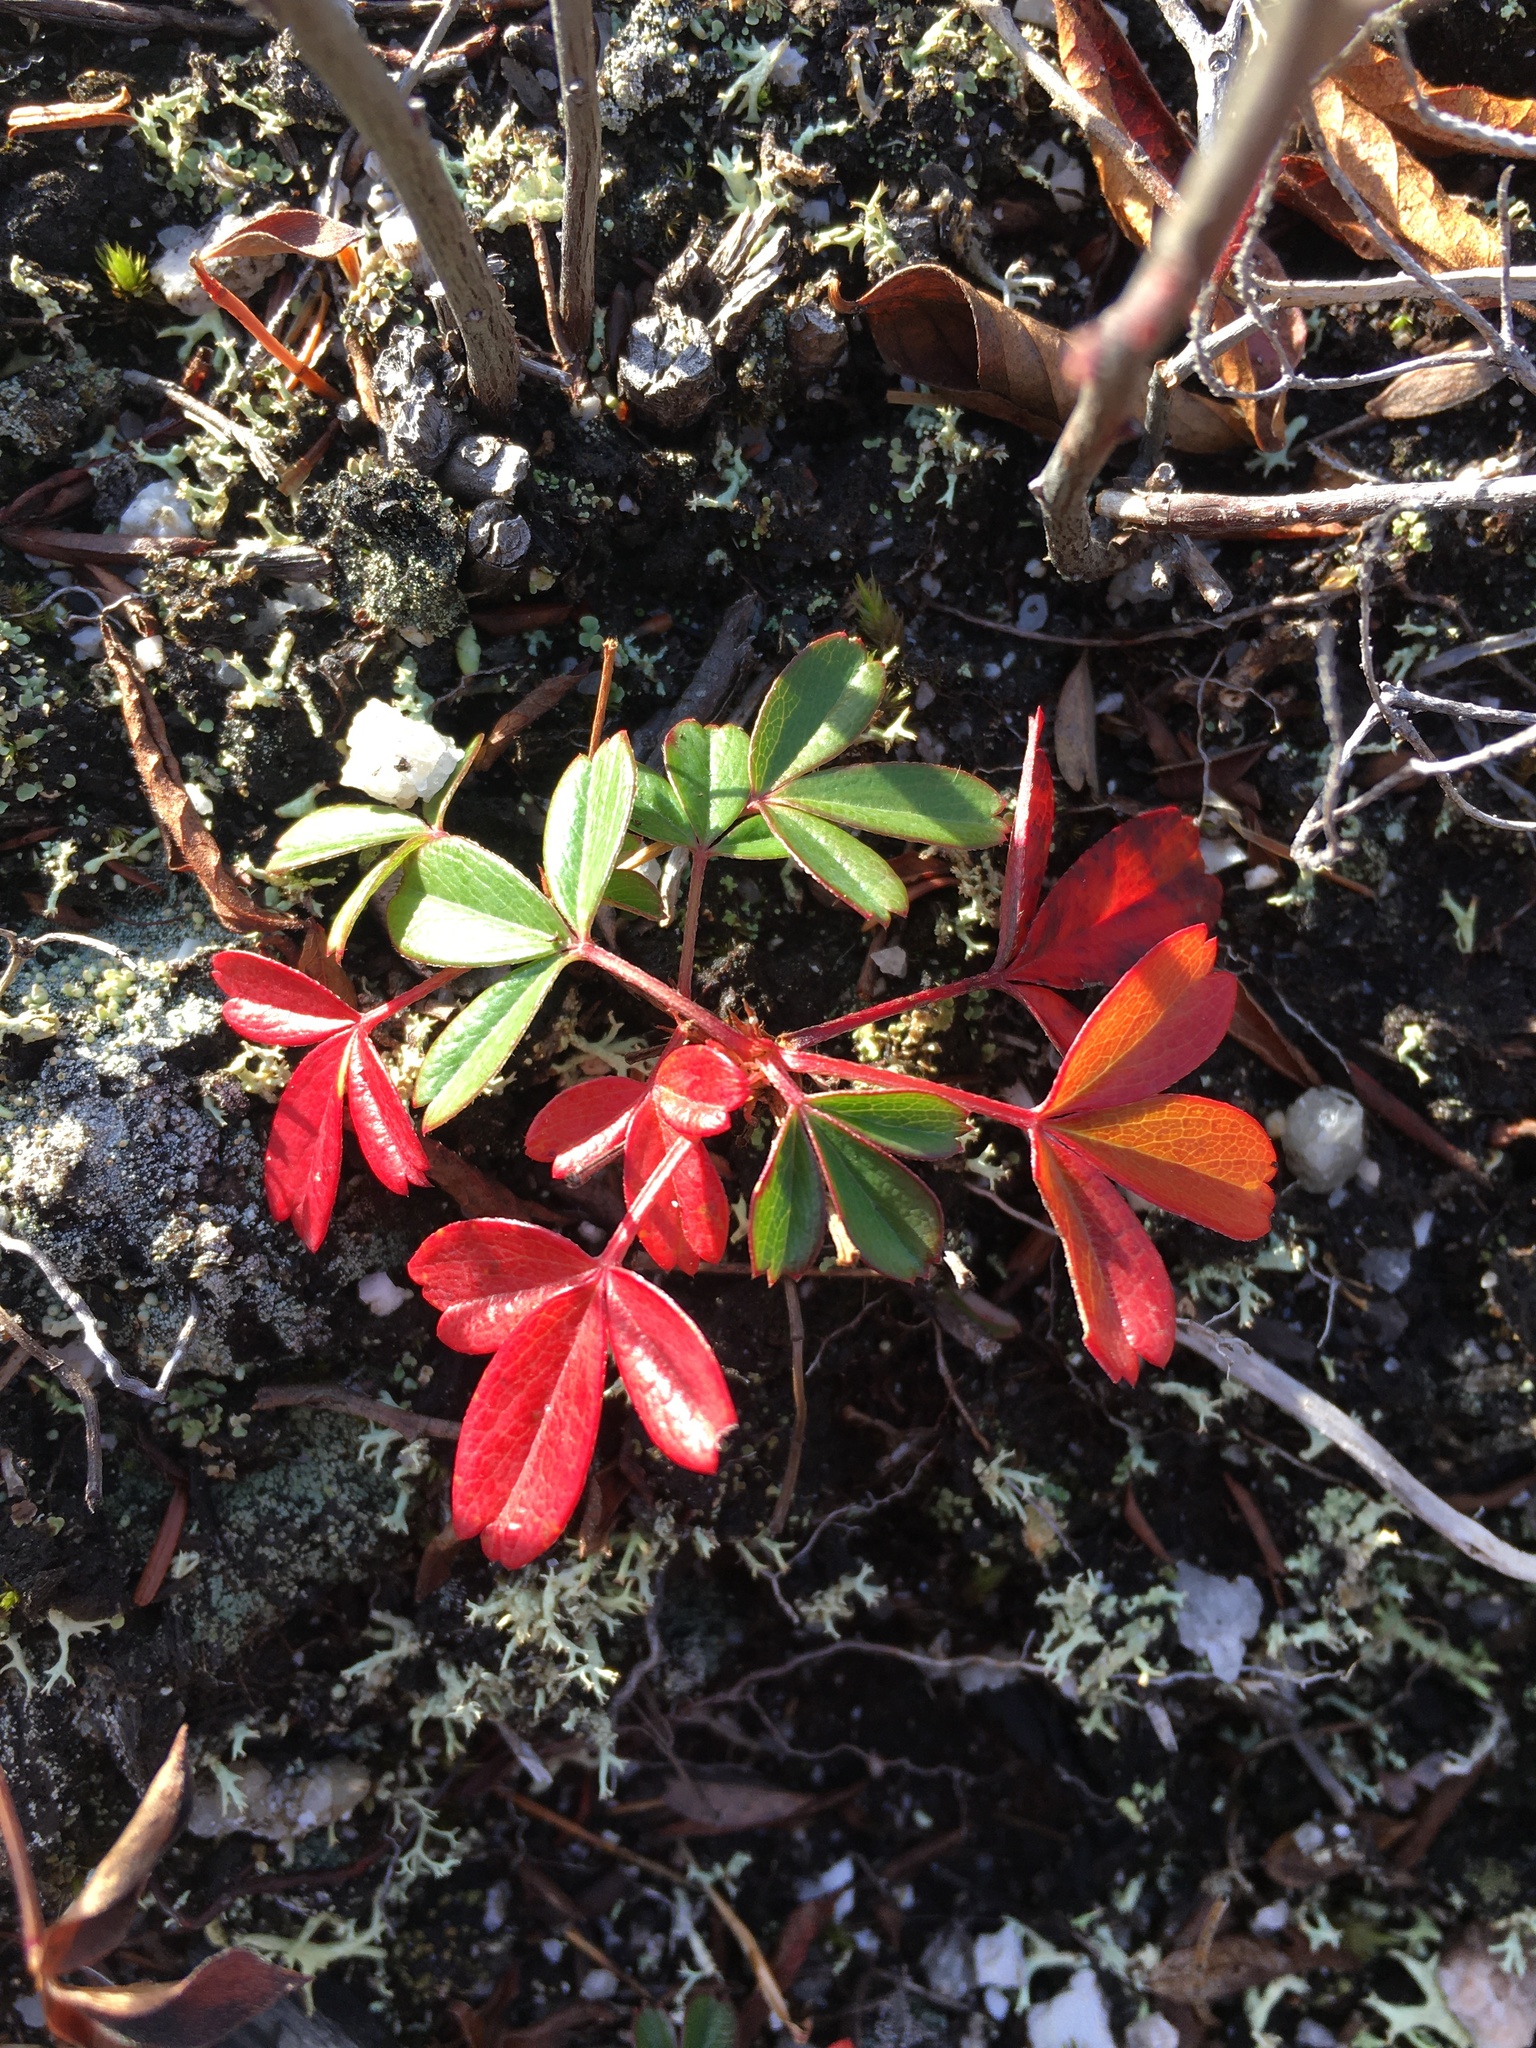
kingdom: Plantae
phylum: Tracheophyta
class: Magnoliopsida
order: Rosales
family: Rosaceae
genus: Sibbaldia
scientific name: Sibbaldia tridentata
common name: Three-toothed cinquefoil
